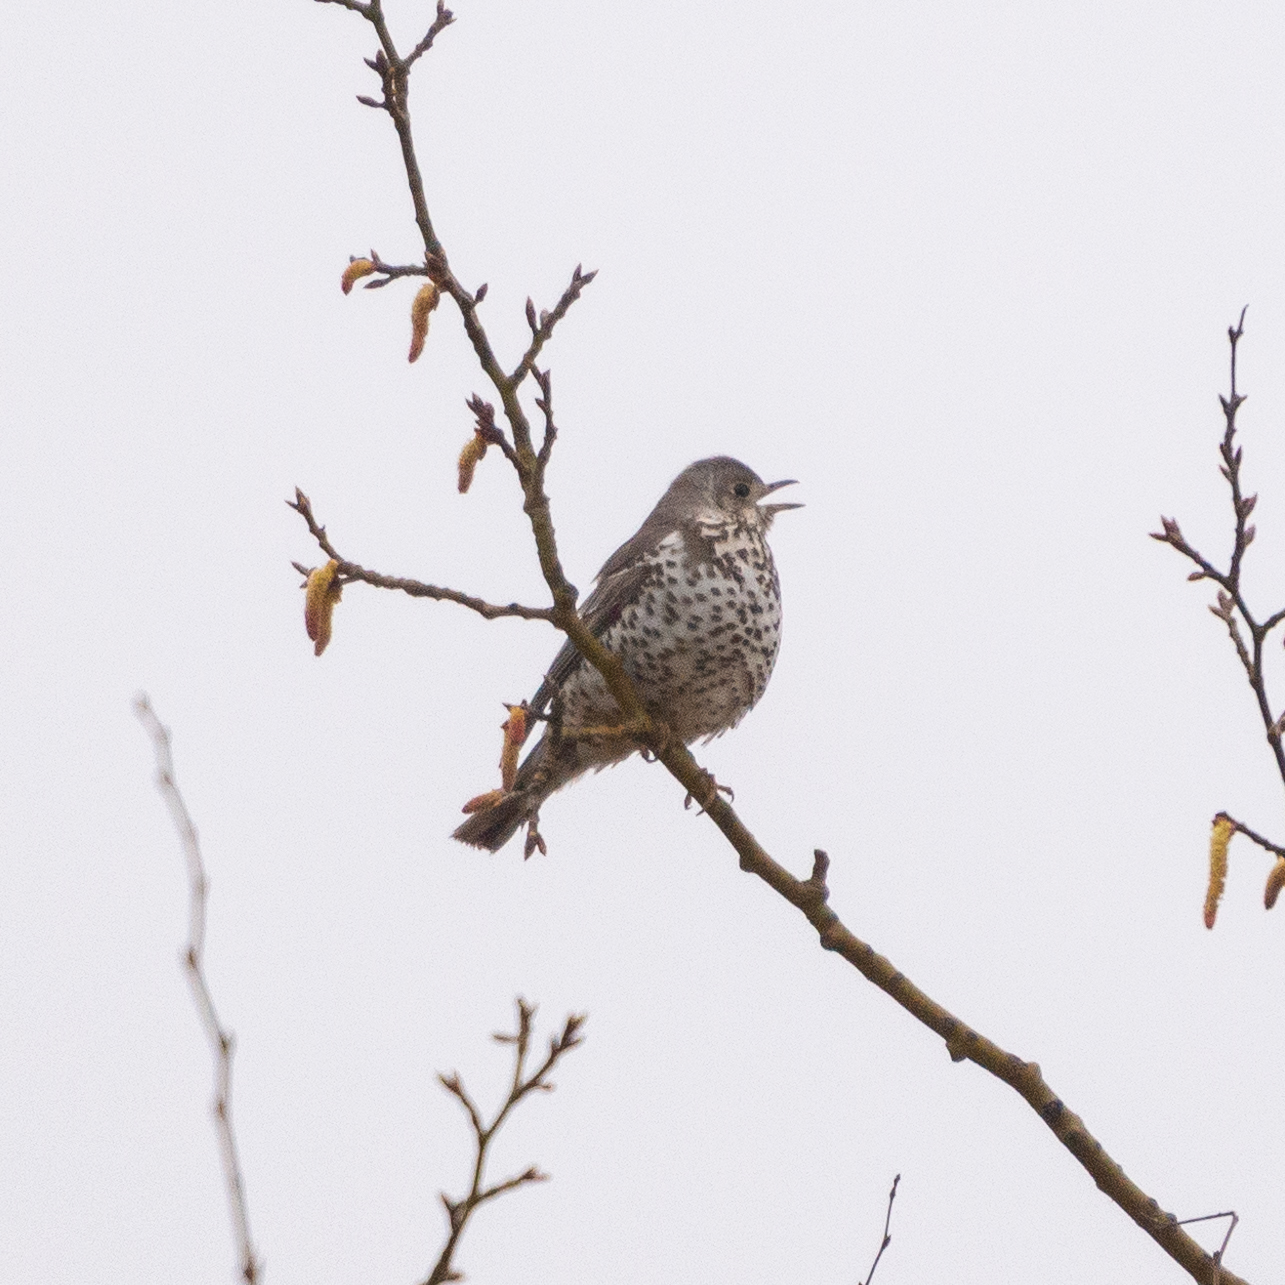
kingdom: Animalia
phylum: Chordata
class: Aves
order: Passeriformes
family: Turdidae
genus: Turdus
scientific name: Turdus viscivorus
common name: Mistle thrush
